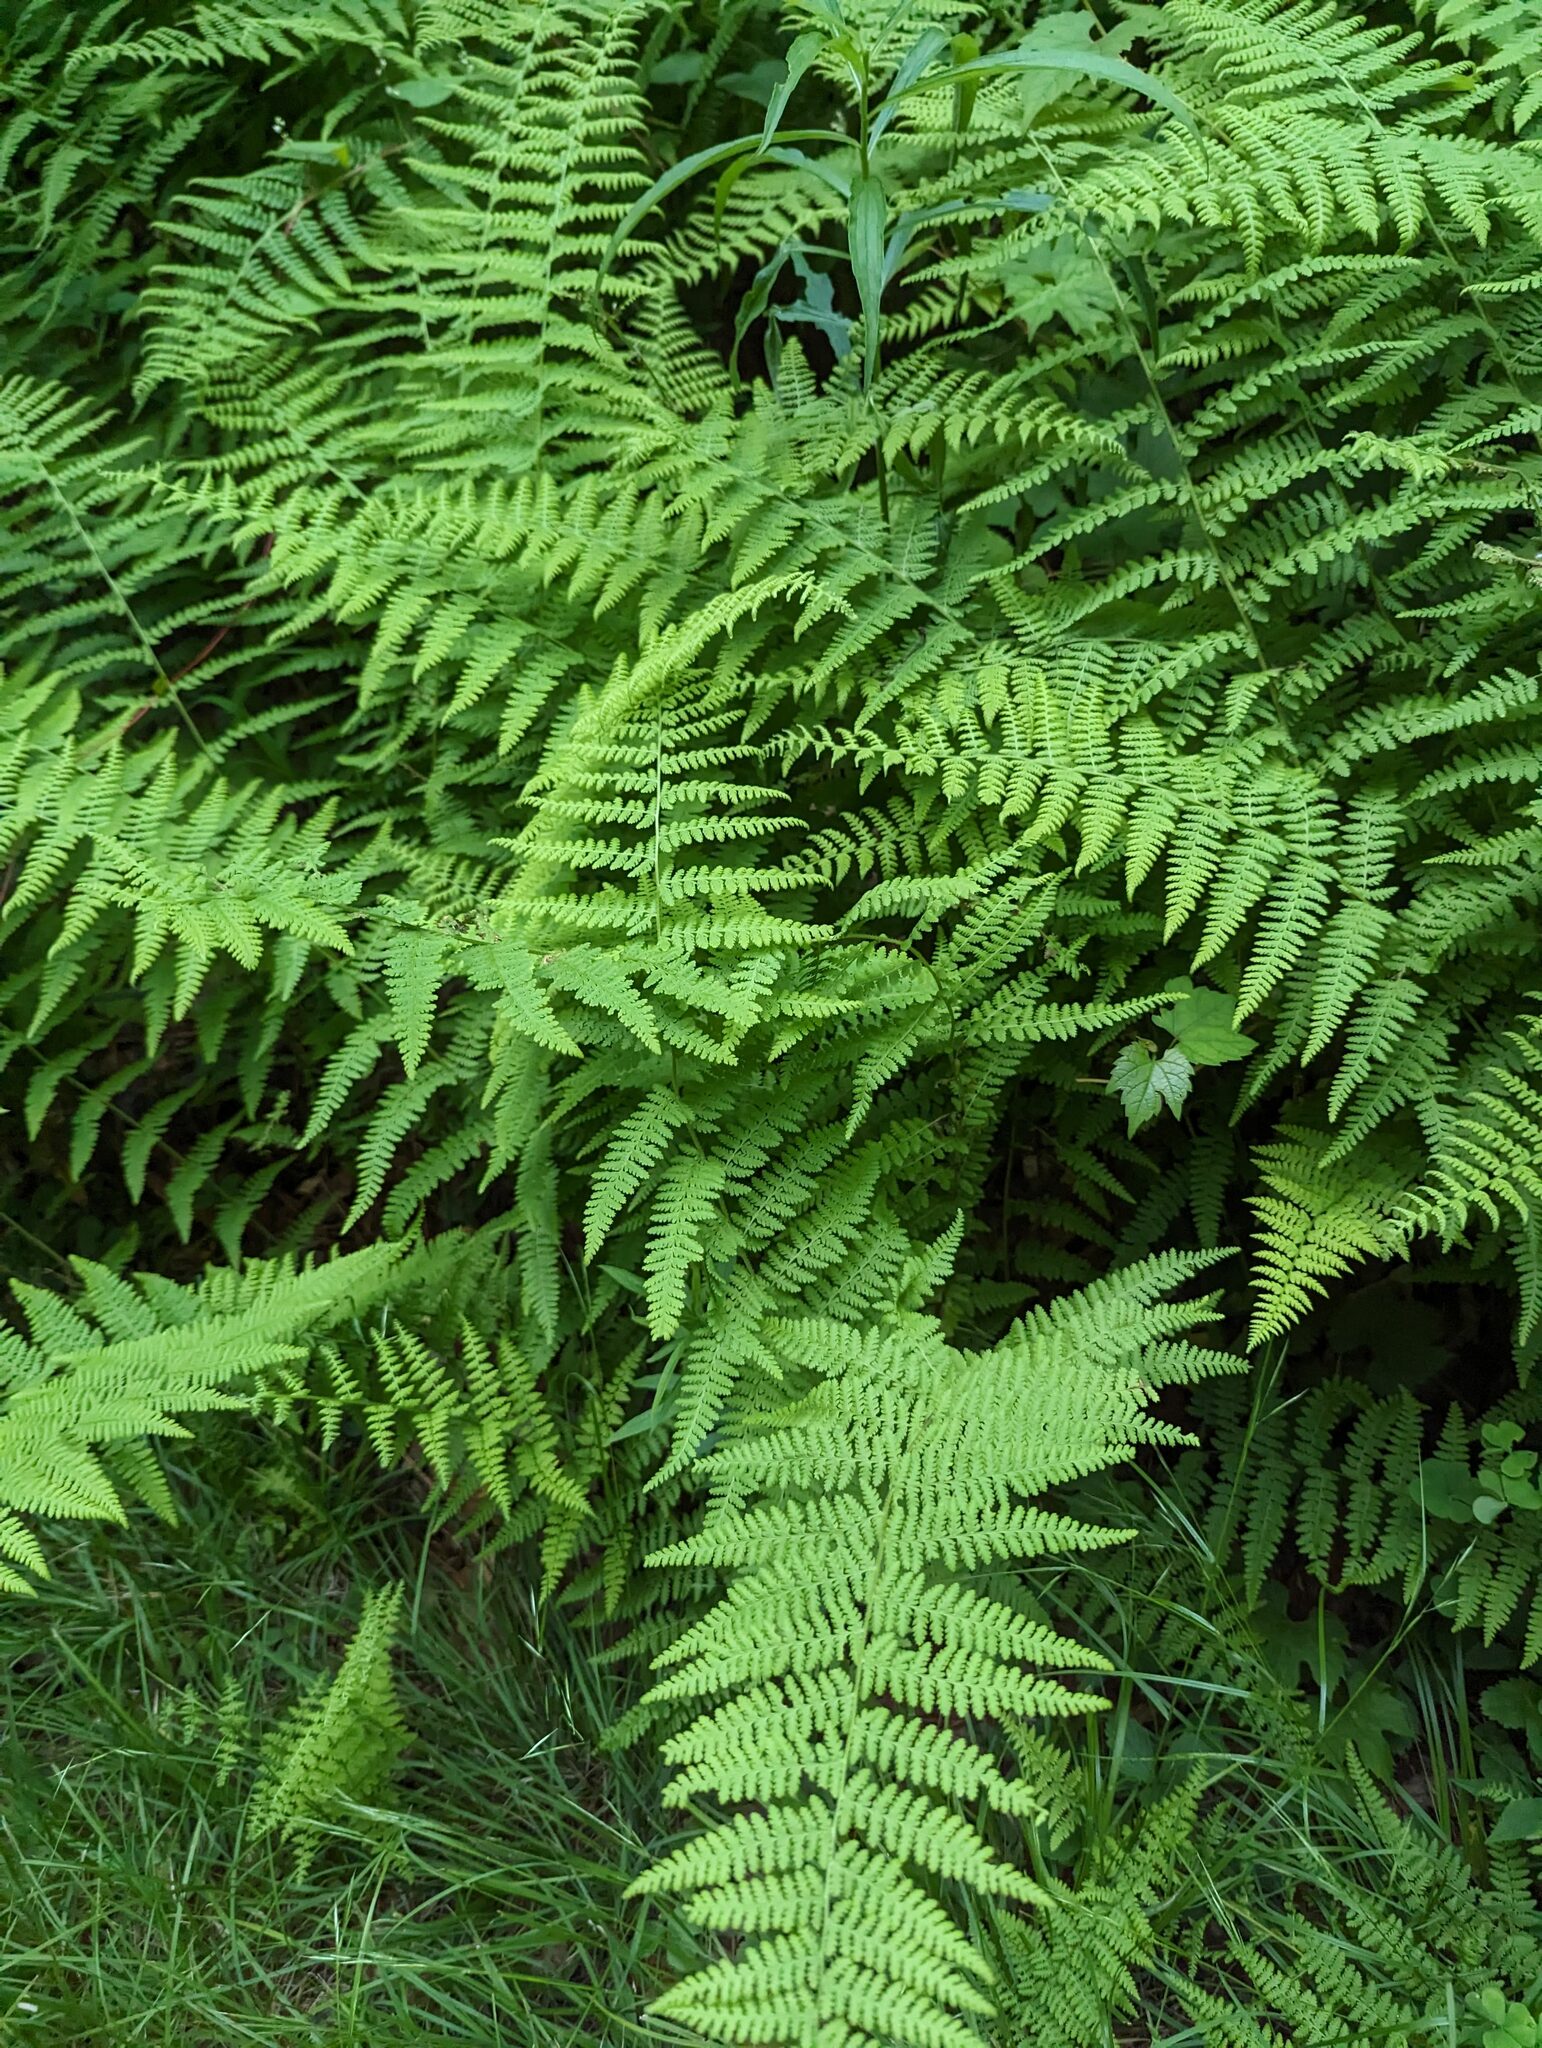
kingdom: Plantae
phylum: Tracheophyta
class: Polypodiopsida
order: Polypodiales
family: Dennstaedtiaceae
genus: Sitobolium
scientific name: Sitobolium punctilobum
